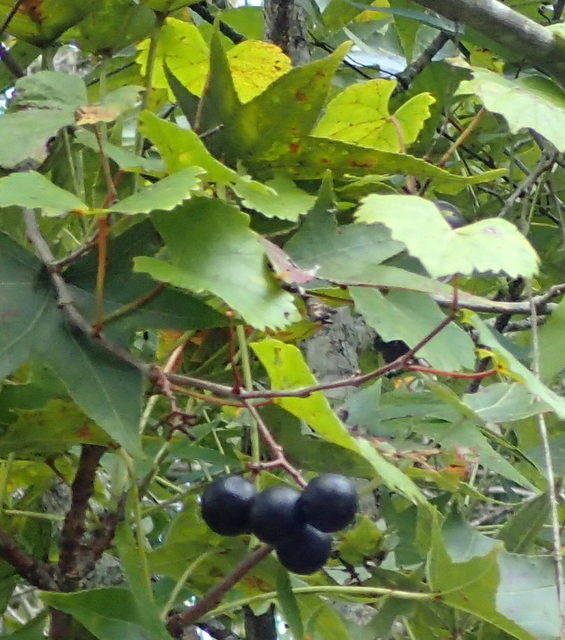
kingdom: Plantae
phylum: Tracheophyta
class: Magnoliopsida
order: Vitales
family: Vitaceae
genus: Vitis
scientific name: Vitis rotundifolia
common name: Muscadine grape
